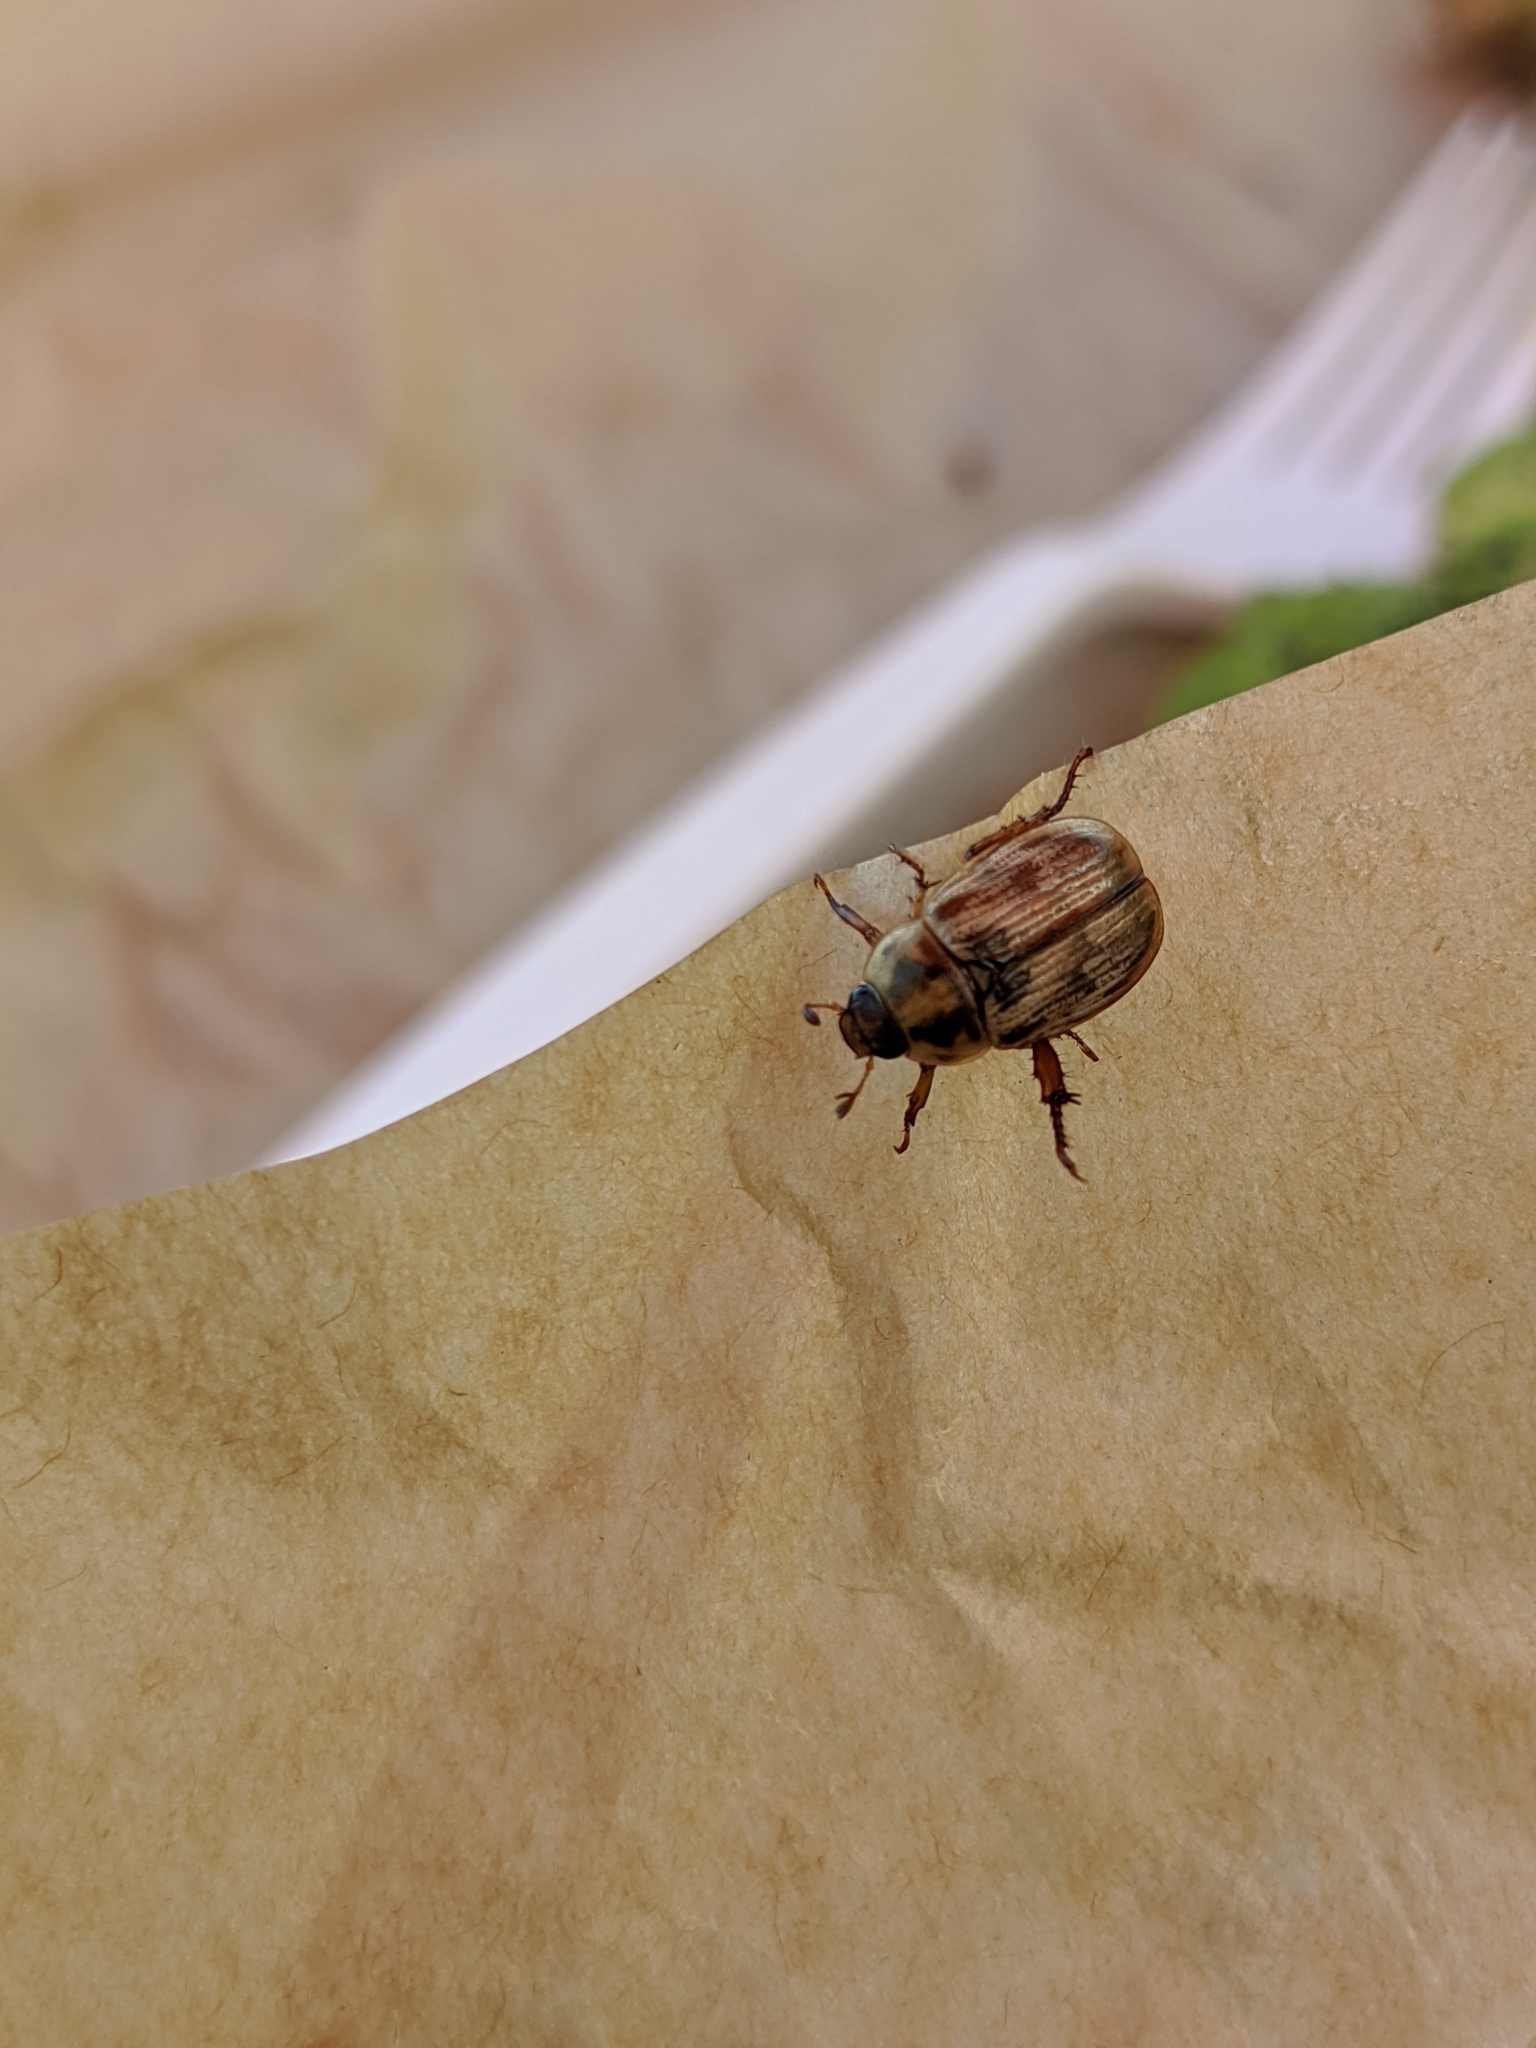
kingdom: Animalia
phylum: Arthropoda
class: Insecta
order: Coleoptera
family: Scarabaeidae
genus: Exomala
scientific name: Exomala orientalis
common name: Oriental beetle
